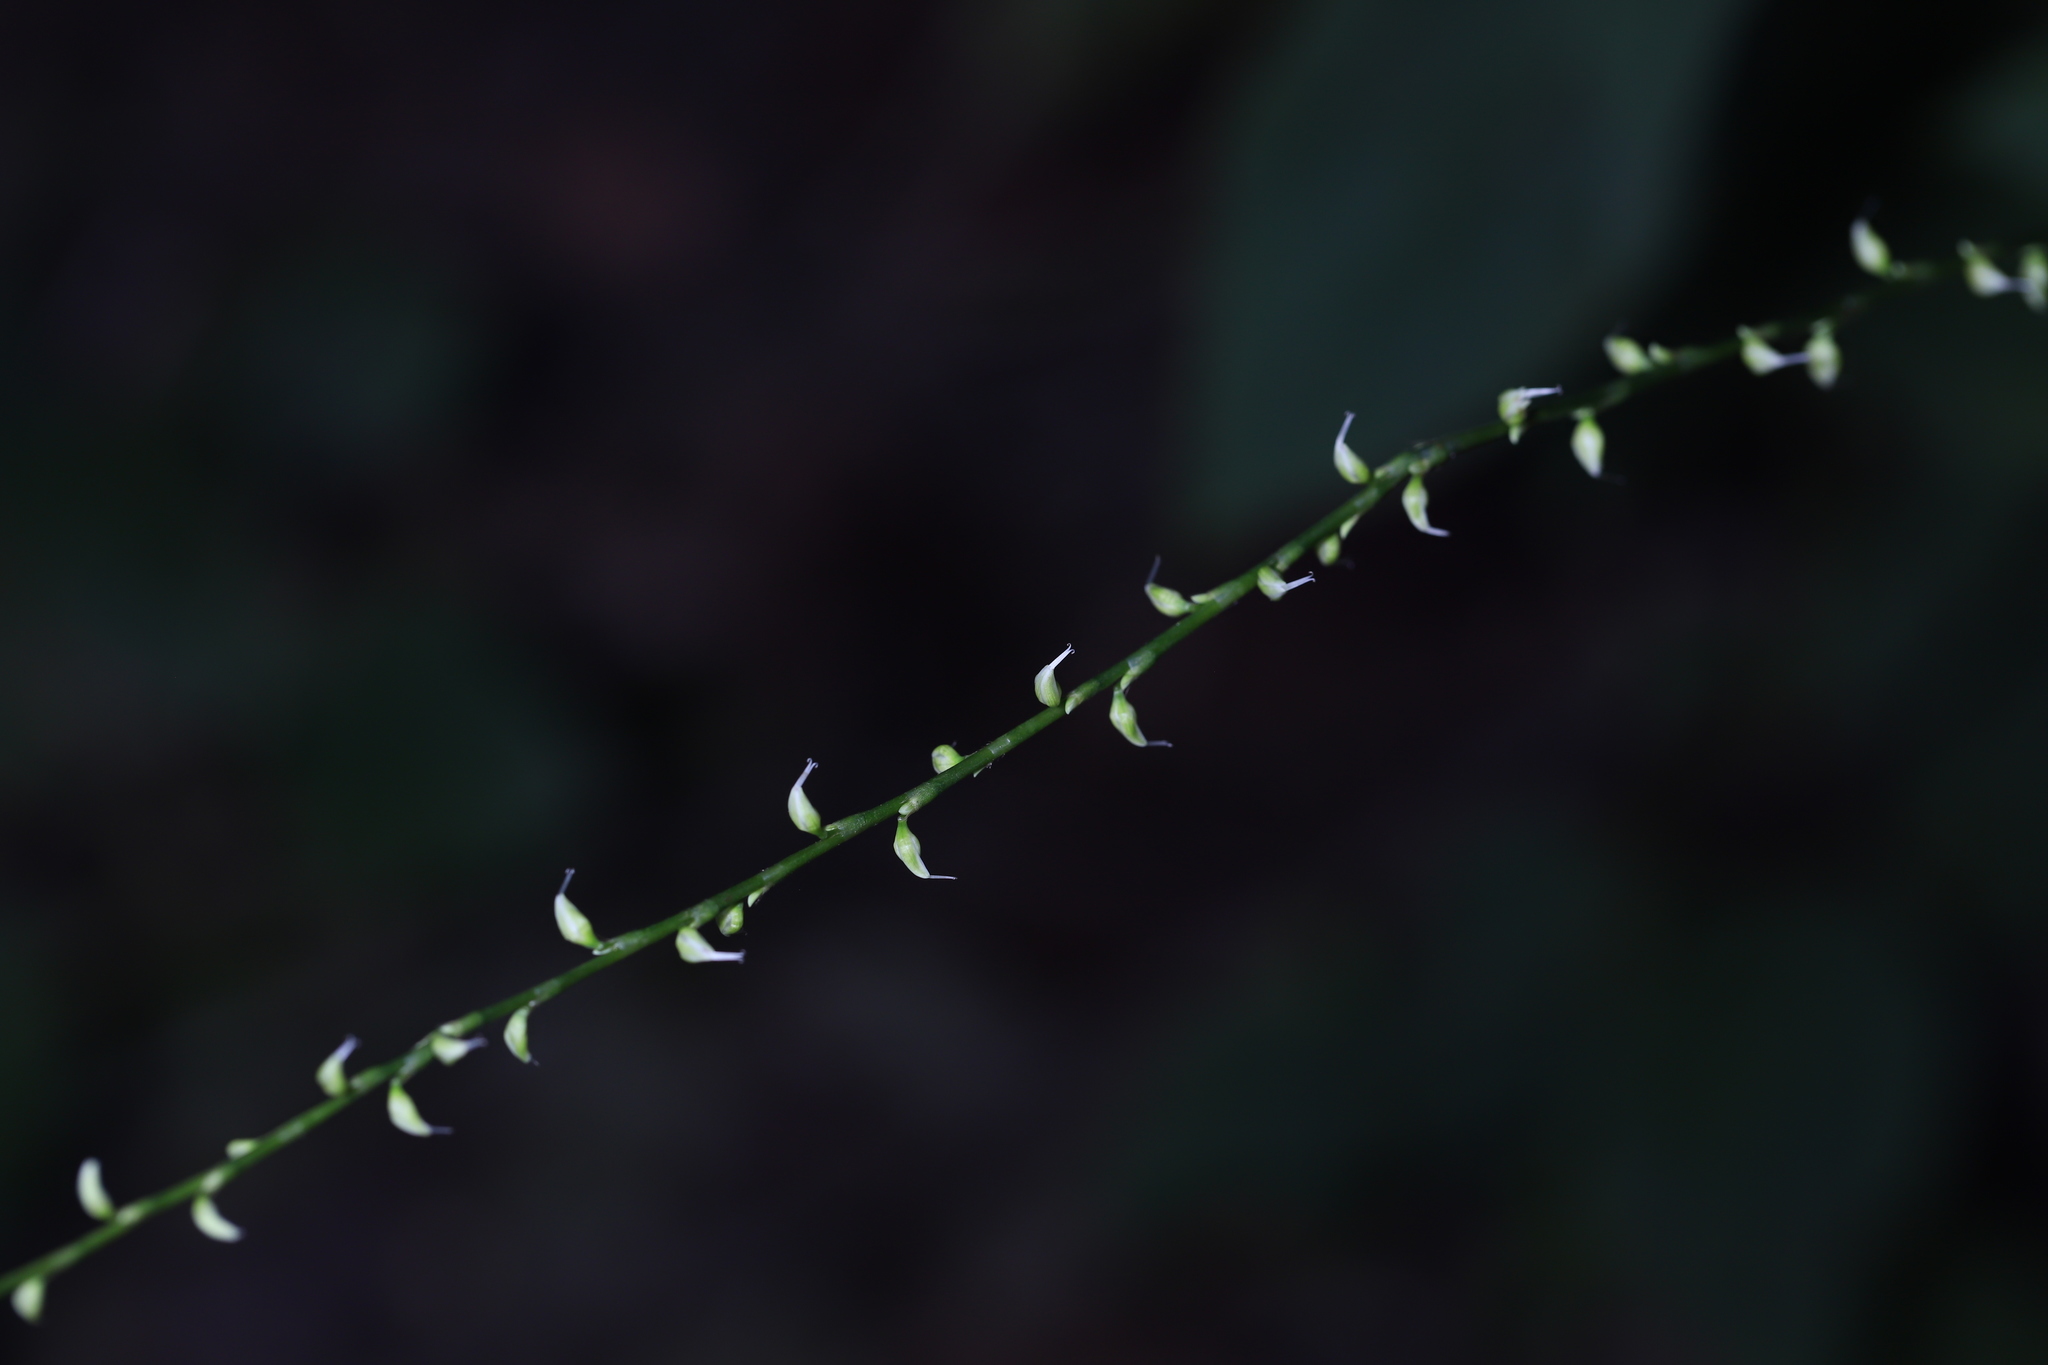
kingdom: Plantae
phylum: Tracheophyta
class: Magnoliopsida
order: Caryophyllales
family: Polygonaceae
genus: Persicaria
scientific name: Persicaria virginiana
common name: Jumpseed
